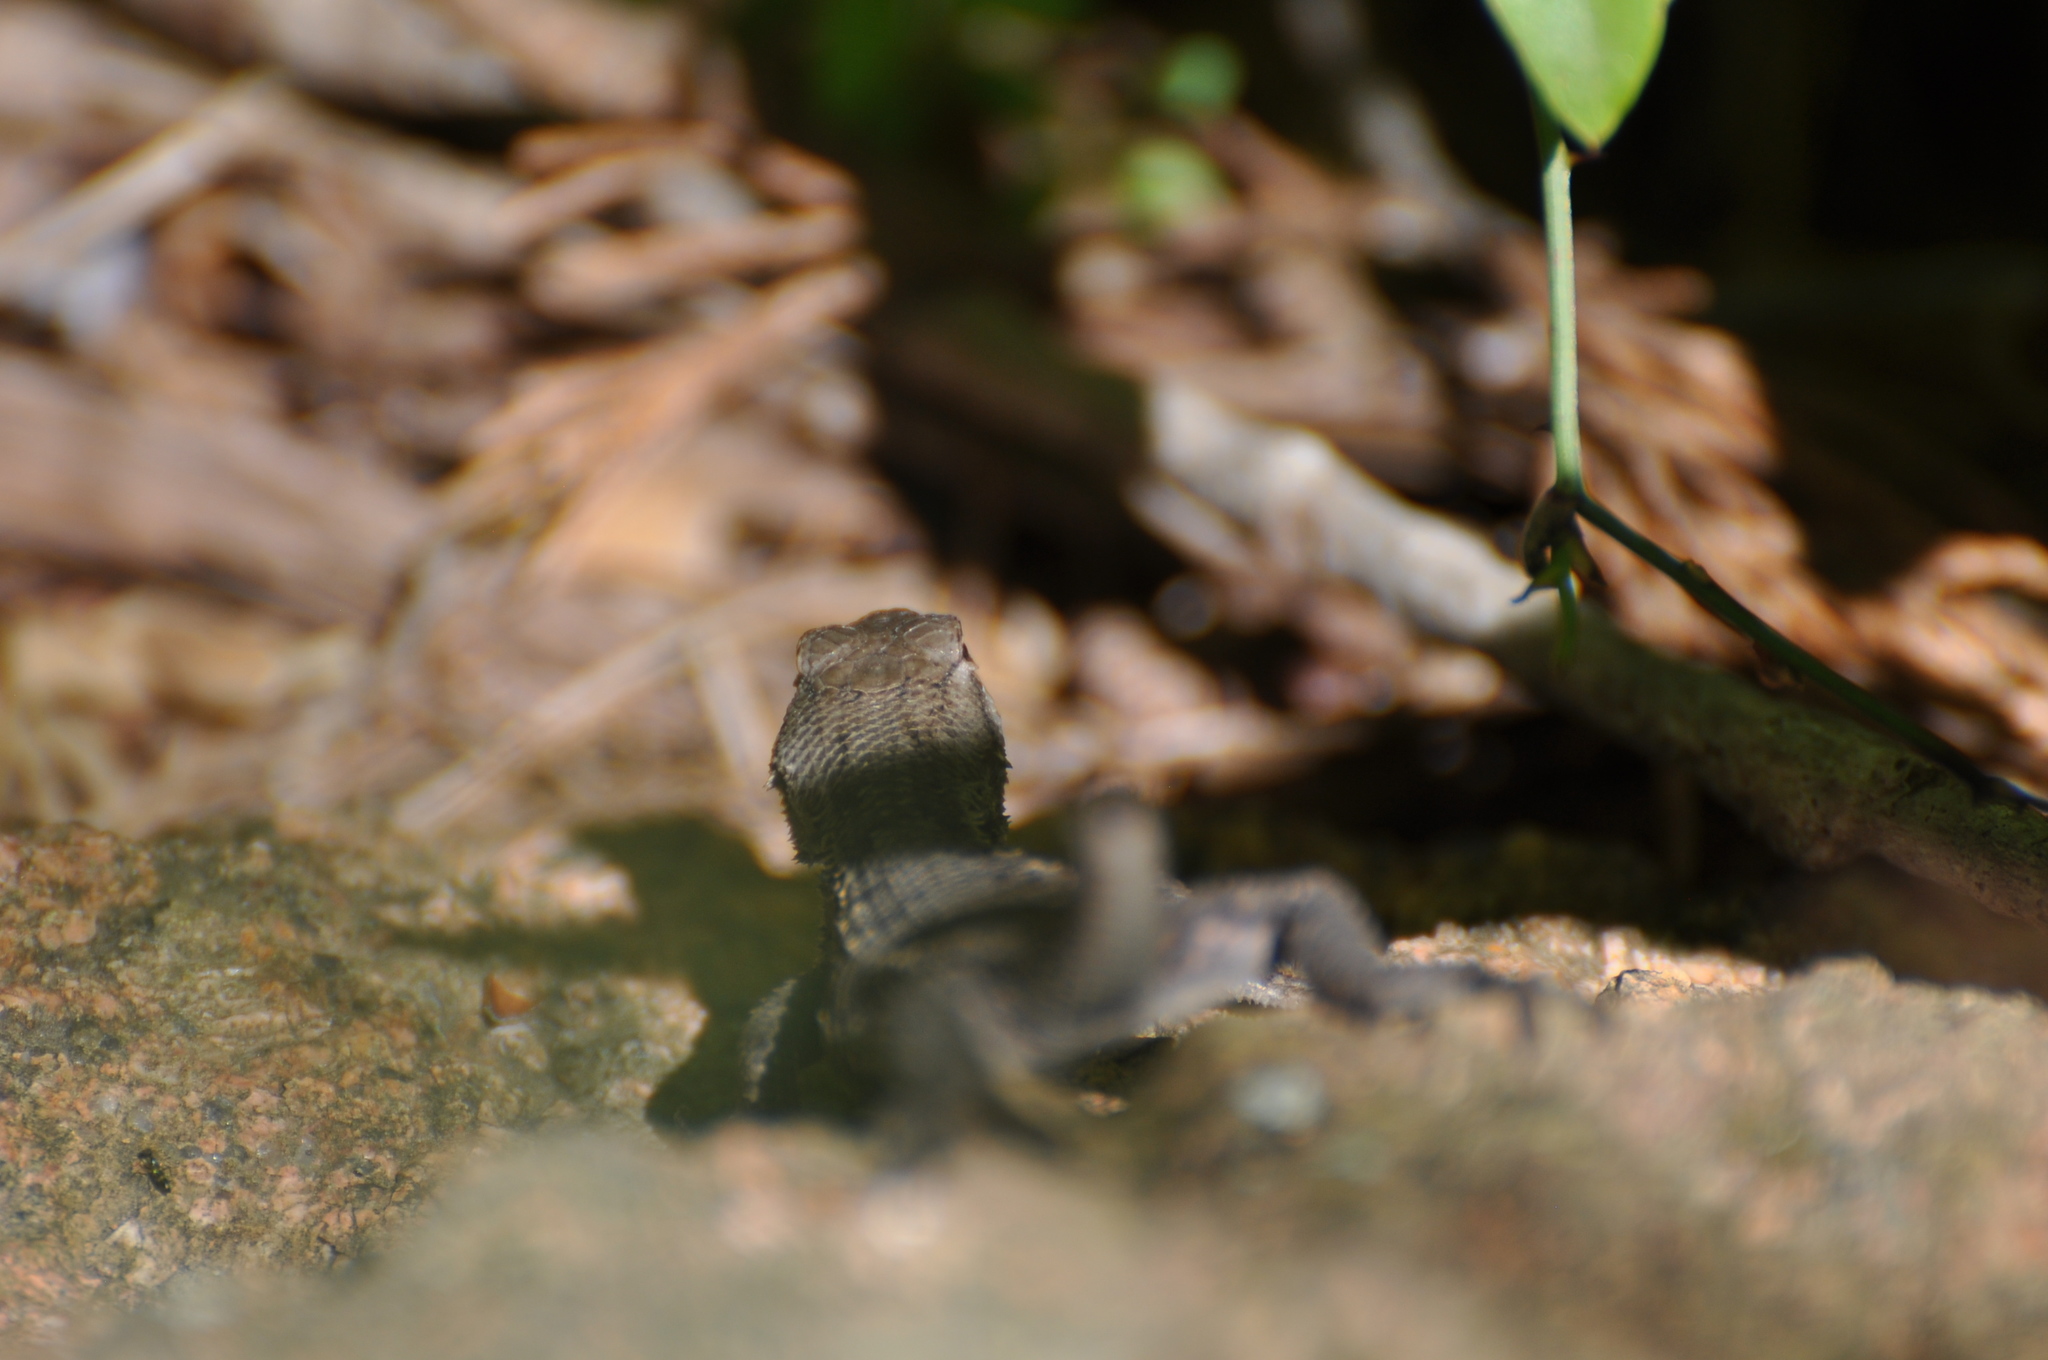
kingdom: Animalia
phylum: Chordata
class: Squamata
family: Phrynosomatidae
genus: Sceloporus
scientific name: Sceloporus consobrinus
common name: Southern prairie lizard
